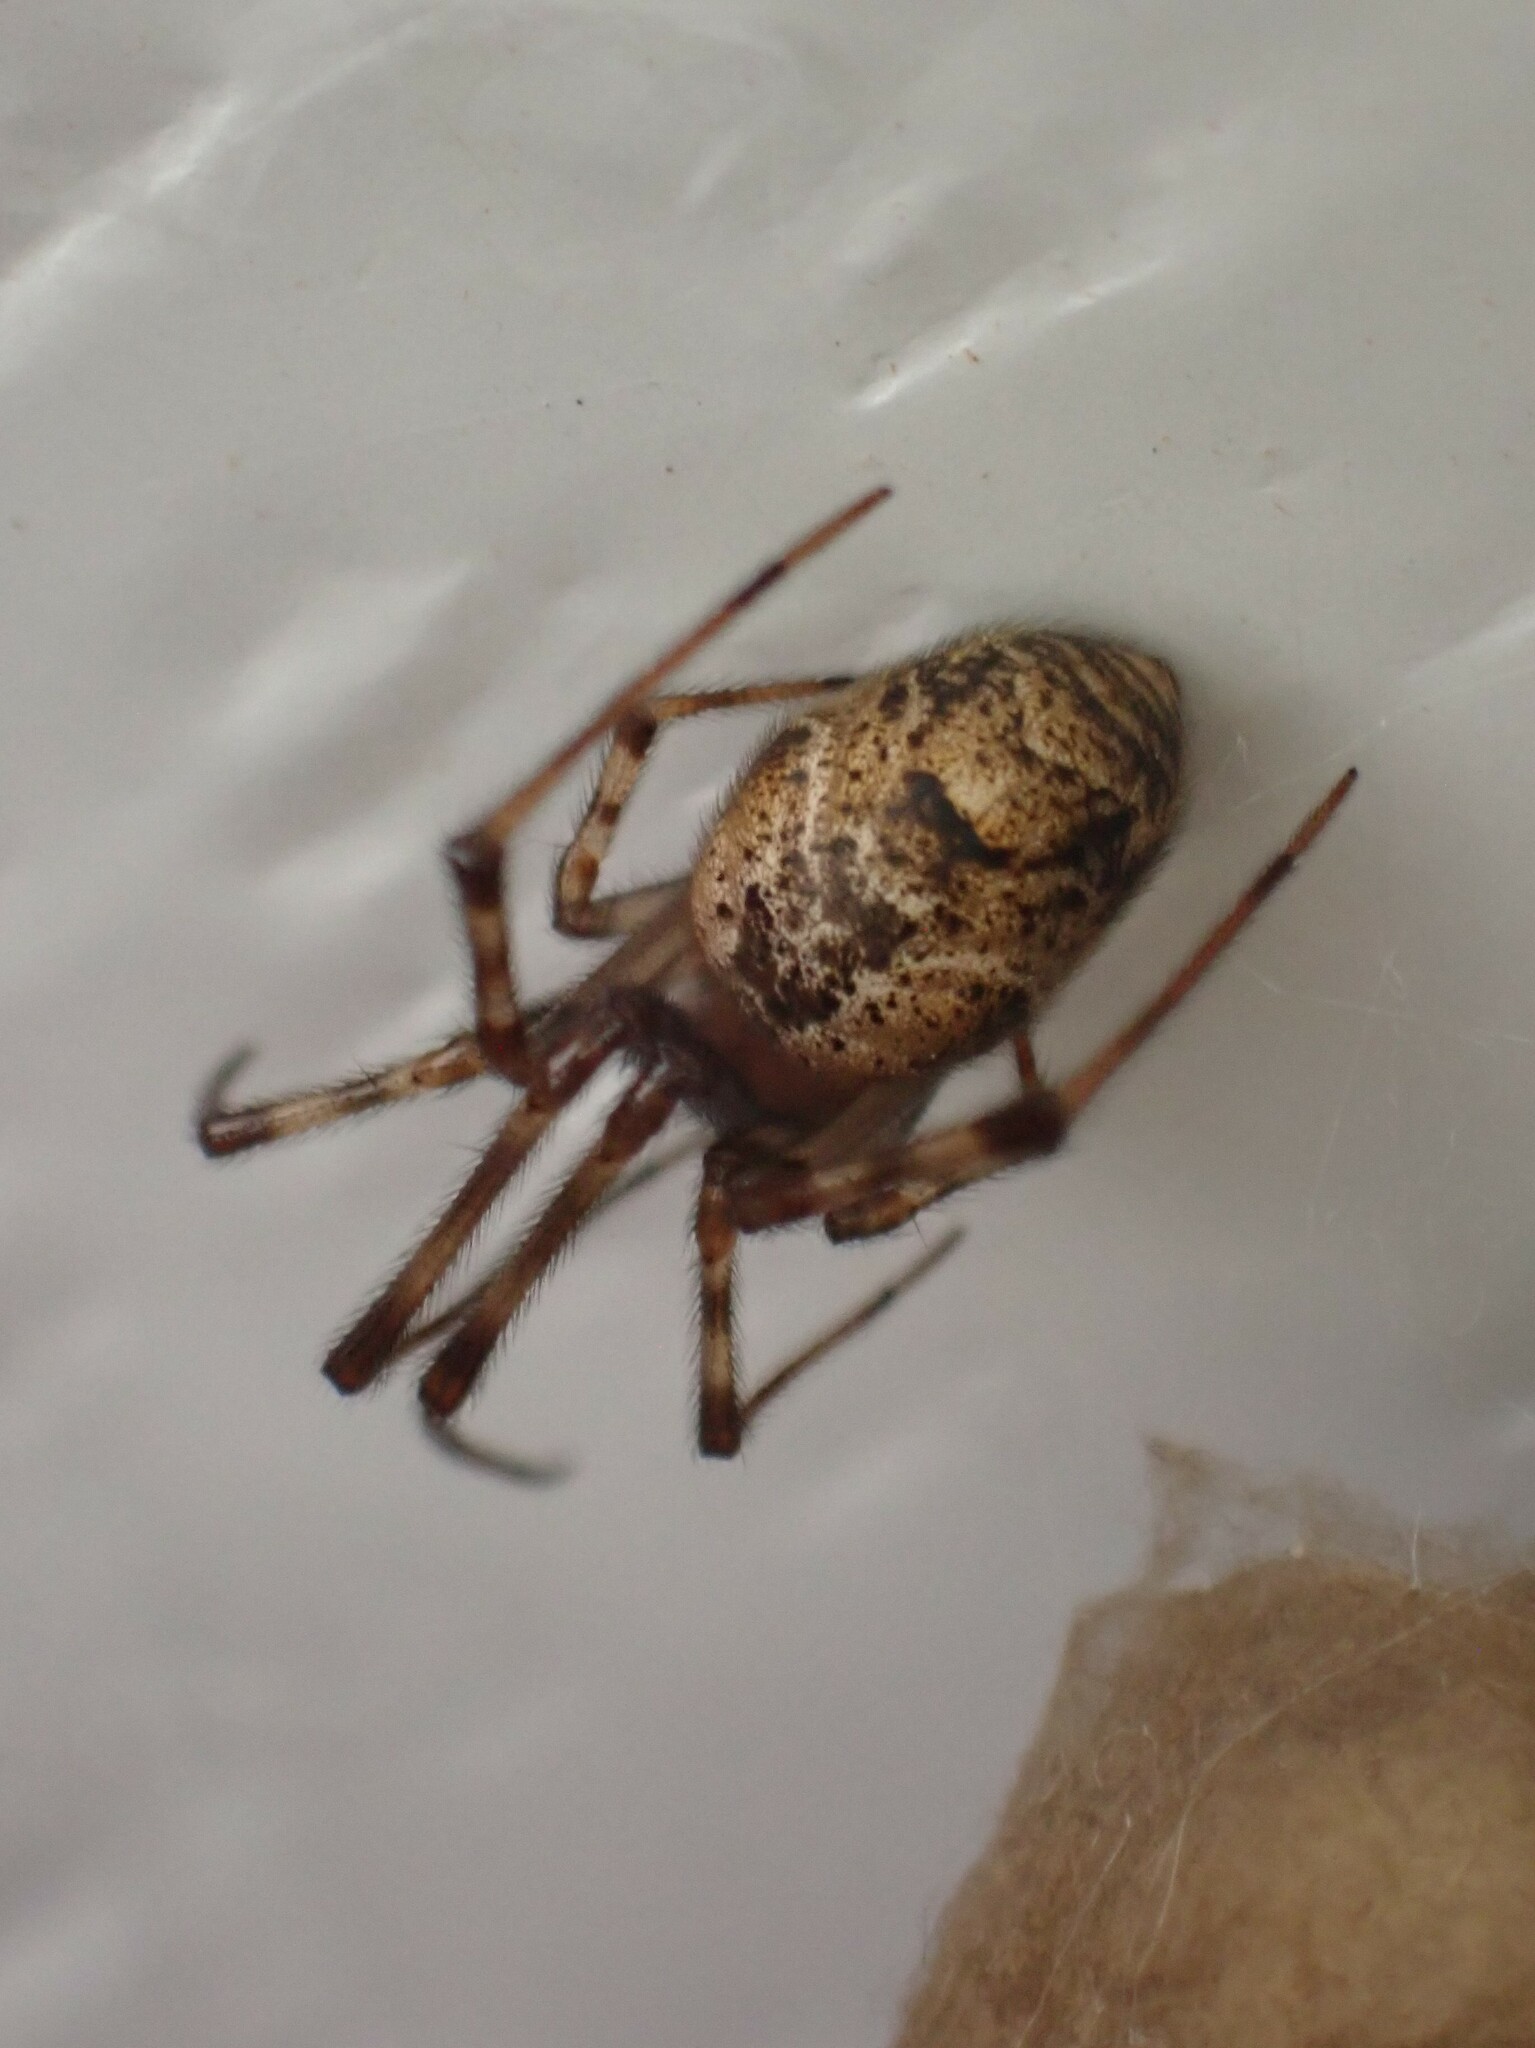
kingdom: Animalia
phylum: Arthropoda
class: Arachnida
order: Araneae
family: Theridiidae
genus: Parasteatoda
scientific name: Parasteatoda tepidariorum
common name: Common house spider
